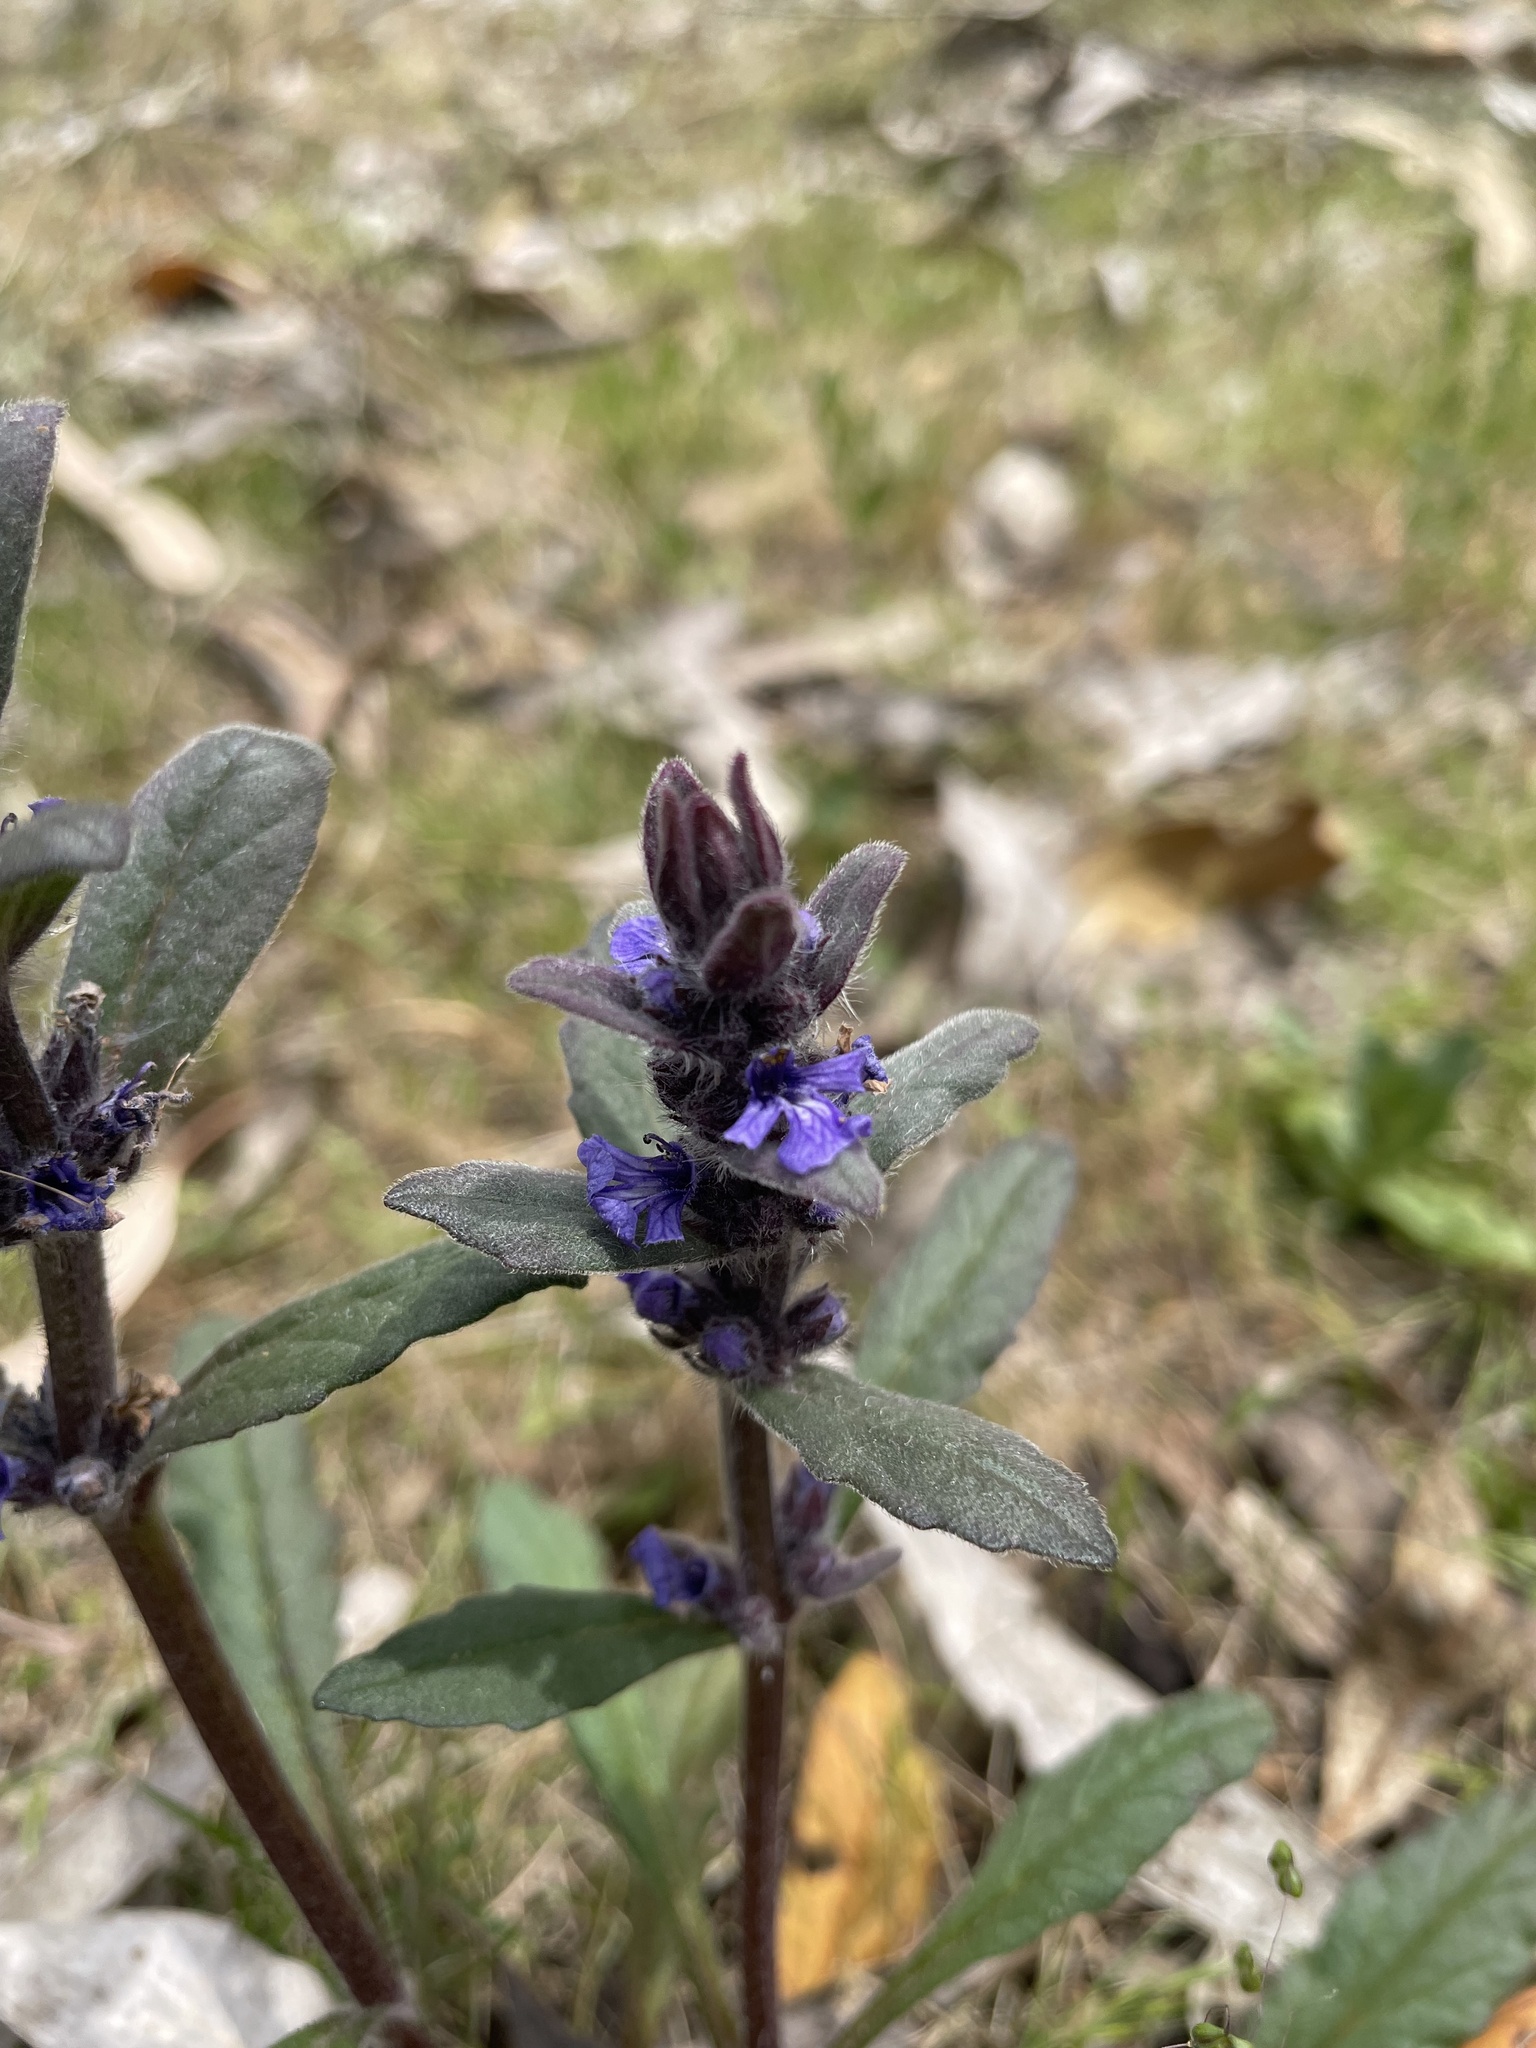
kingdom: Plantae
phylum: Tracheophyta
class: Magnoliopsida
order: Lamiales
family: Lamiaceae
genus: Ajuga
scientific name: Ajuga australis
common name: Australian bugle
